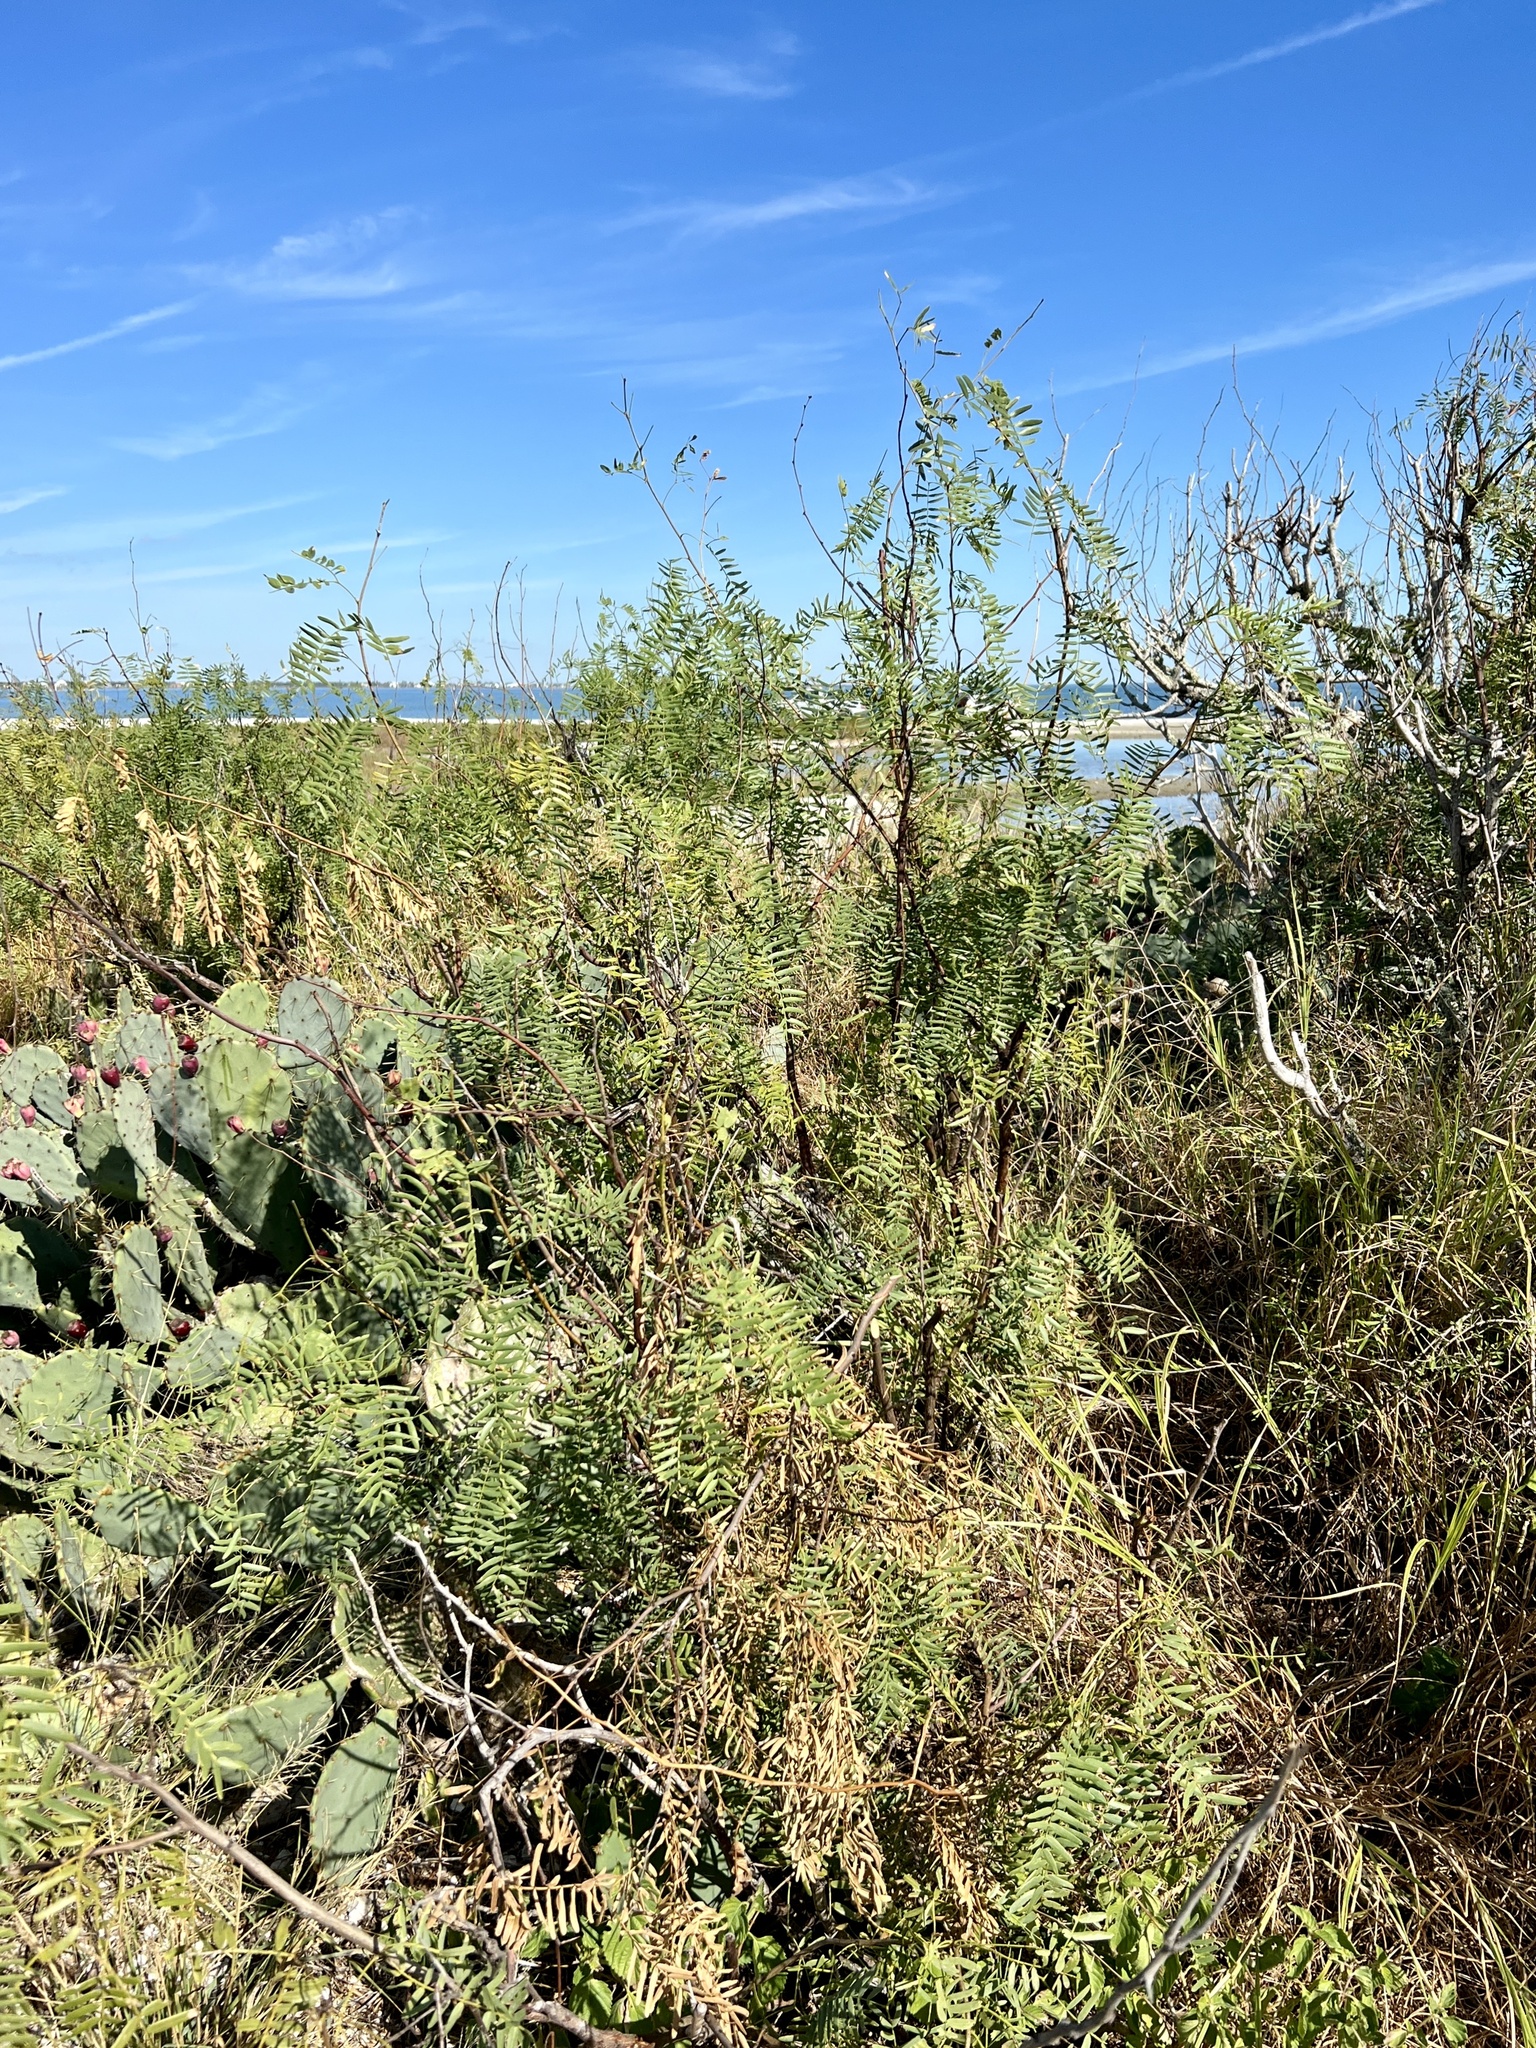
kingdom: Plantae
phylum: Tracheophyta
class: Magnoliopsida
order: Fabales
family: Fabaceae
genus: Prosopis
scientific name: Prosopis glandulosa
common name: Honey mesquite
